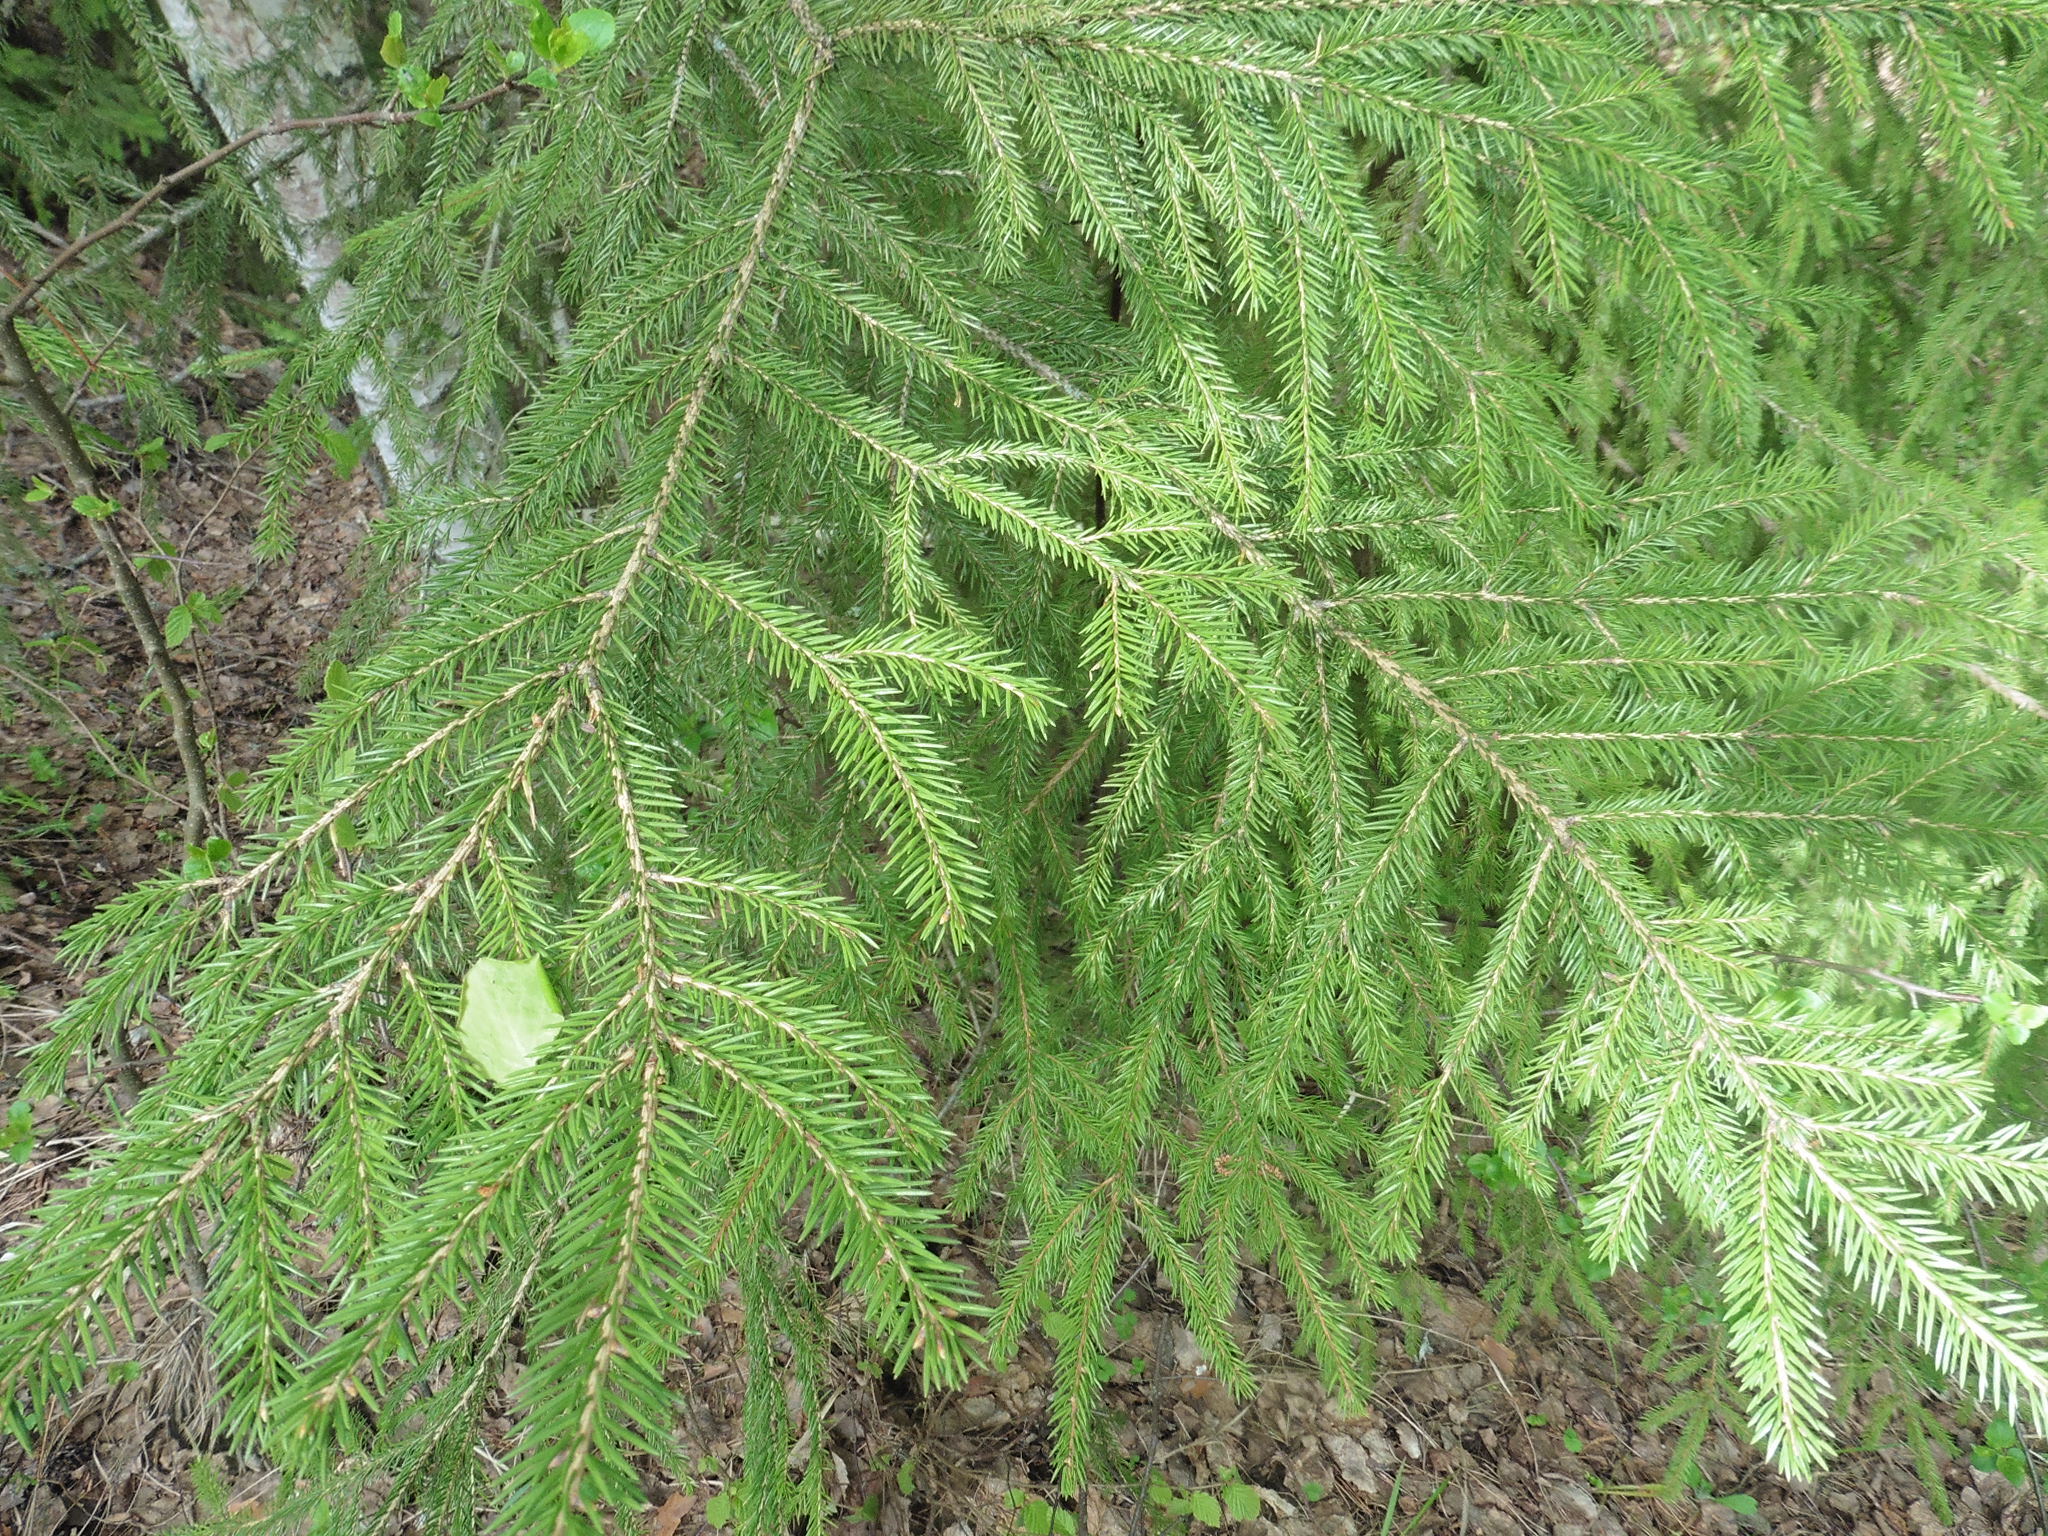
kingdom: Plantae
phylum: Tracheophyta
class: Pinopsida
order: Pinales
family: Pinaceae
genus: Picea
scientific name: Picea abies
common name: Norway spruce
